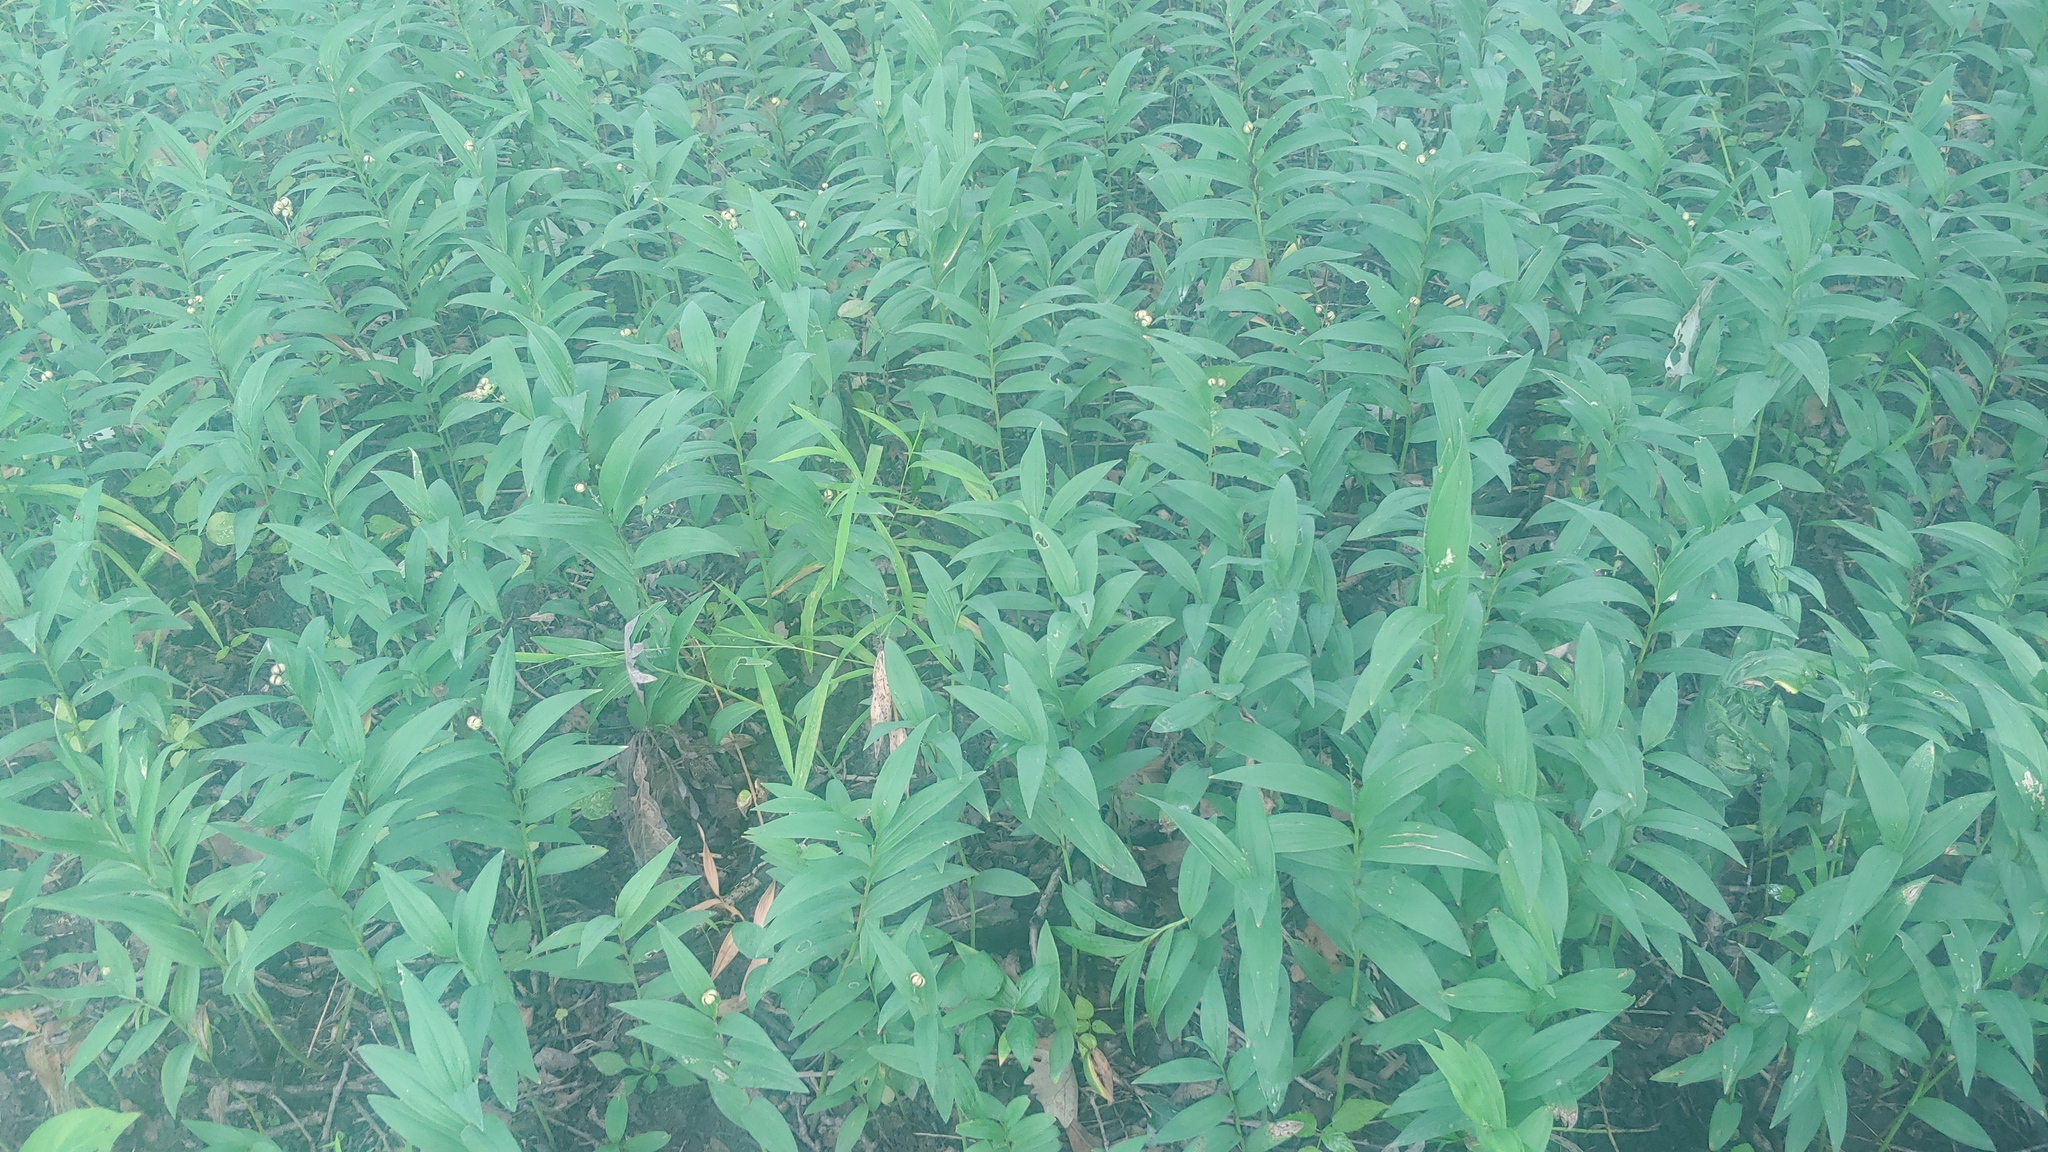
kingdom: Plantae
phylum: Tracheophyta
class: Liliopsida
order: Asparagales
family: Asparagaceae
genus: Maianthemum
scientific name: Maianthemum stellatum
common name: Little false solomon's seal
